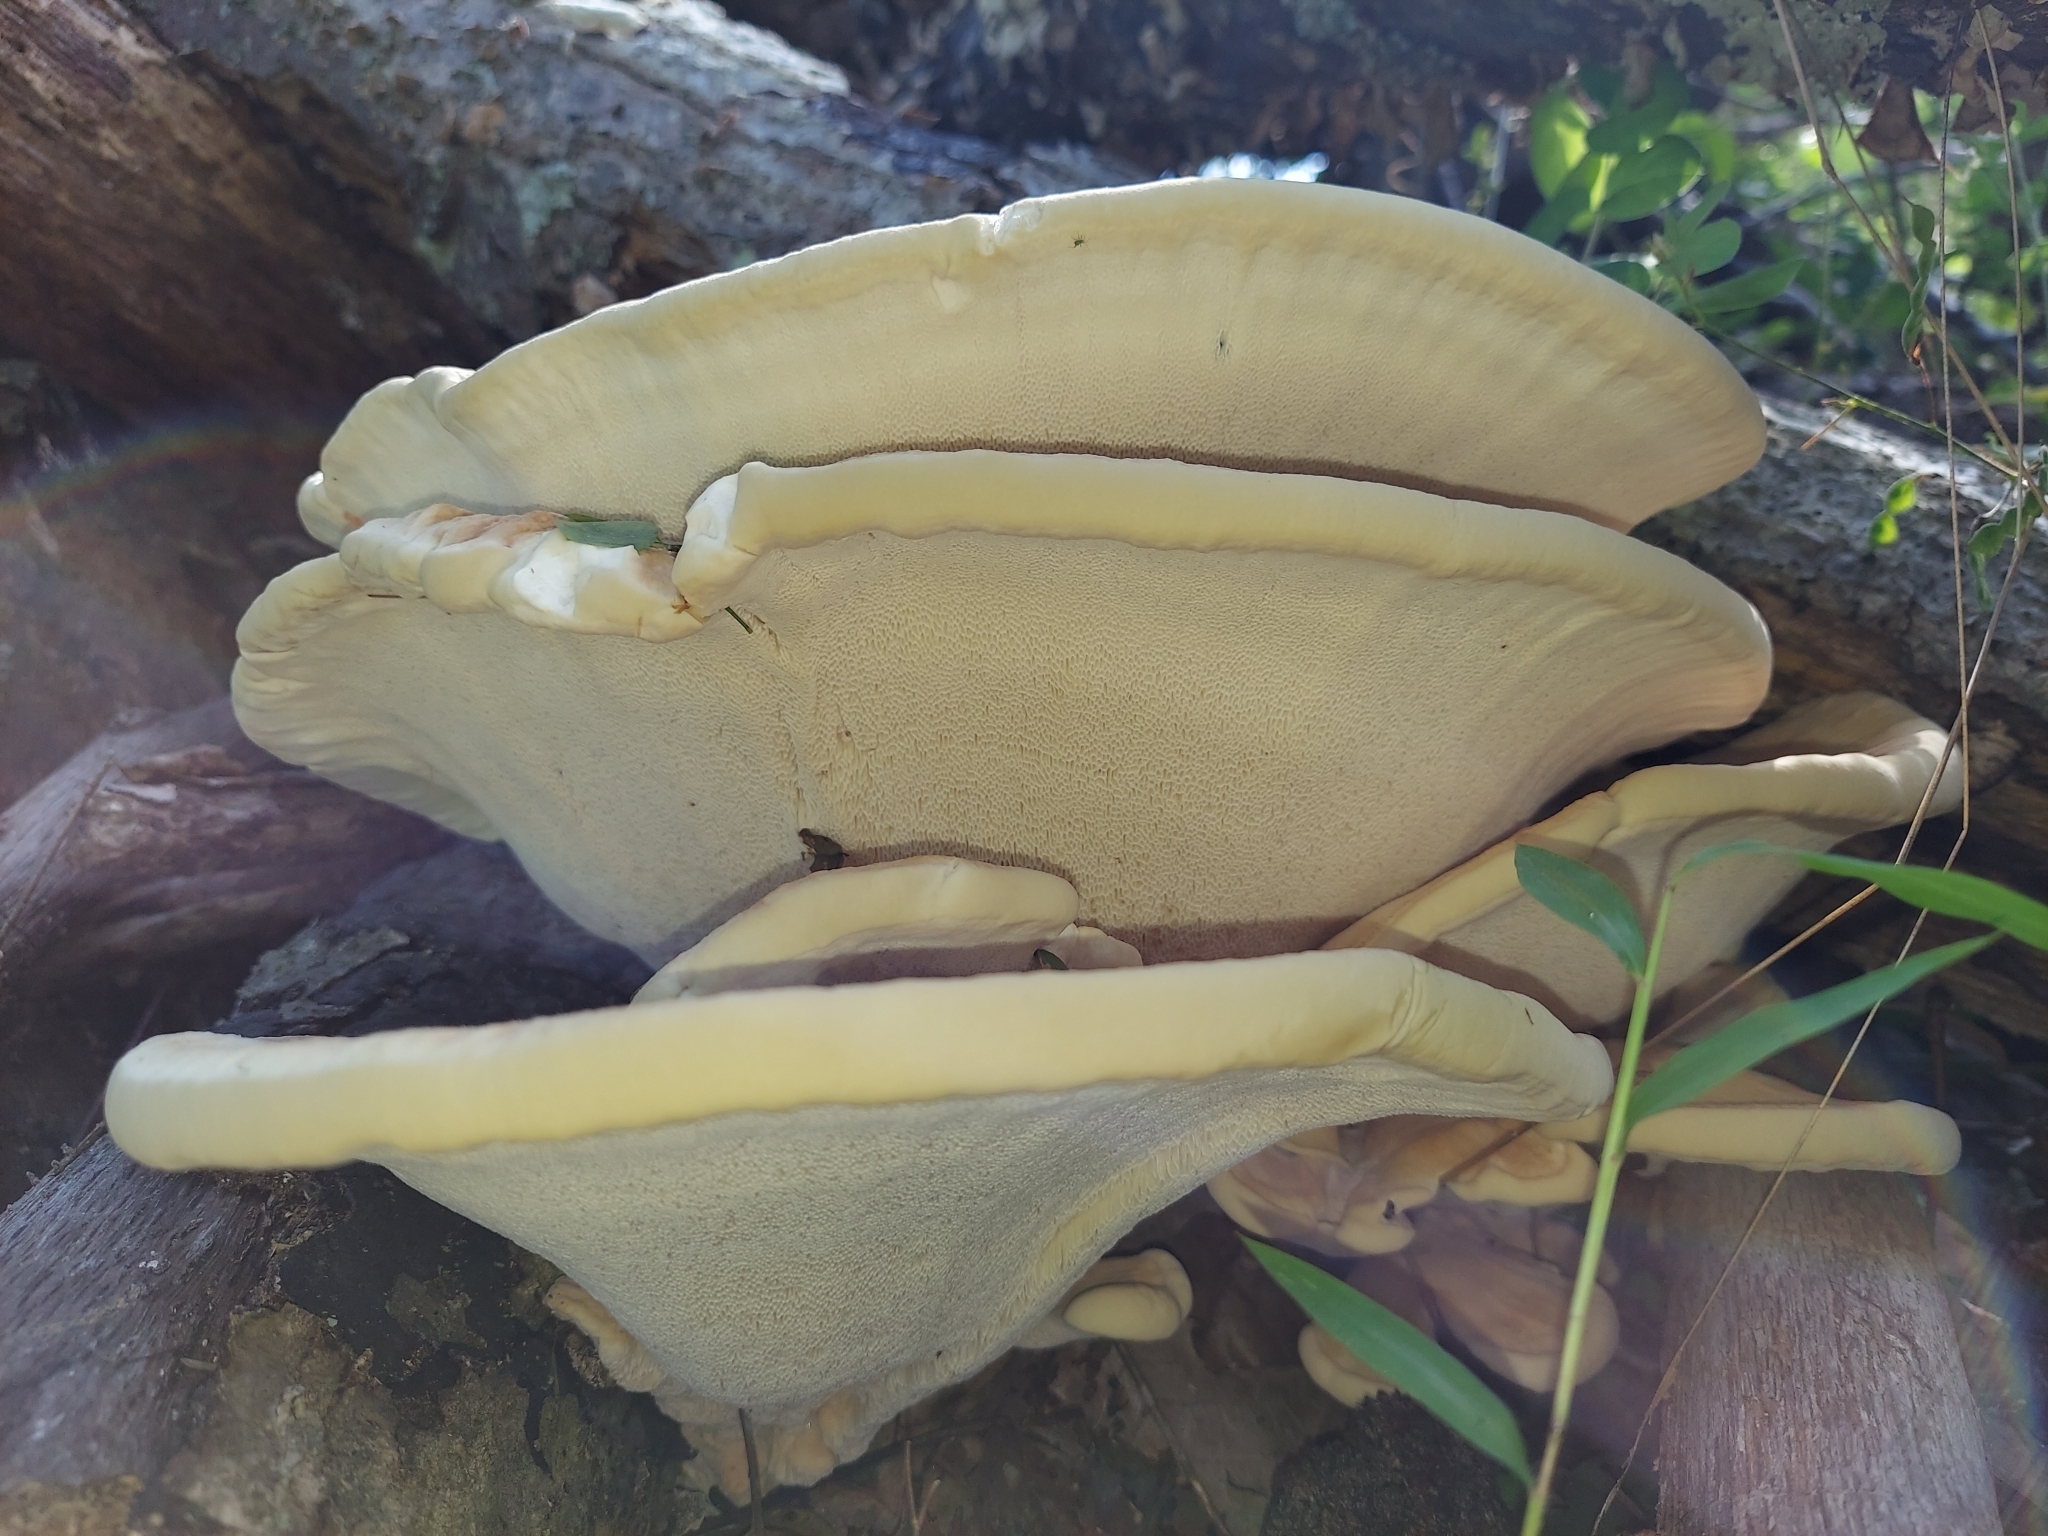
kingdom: Fungi
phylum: Basidiomycota
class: Agaricomycetes
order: Russulales
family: Bondarzewiaceae
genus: Bondarzewia
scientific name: Bondarzewia berkeleyi
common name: Berkeley's polypore
